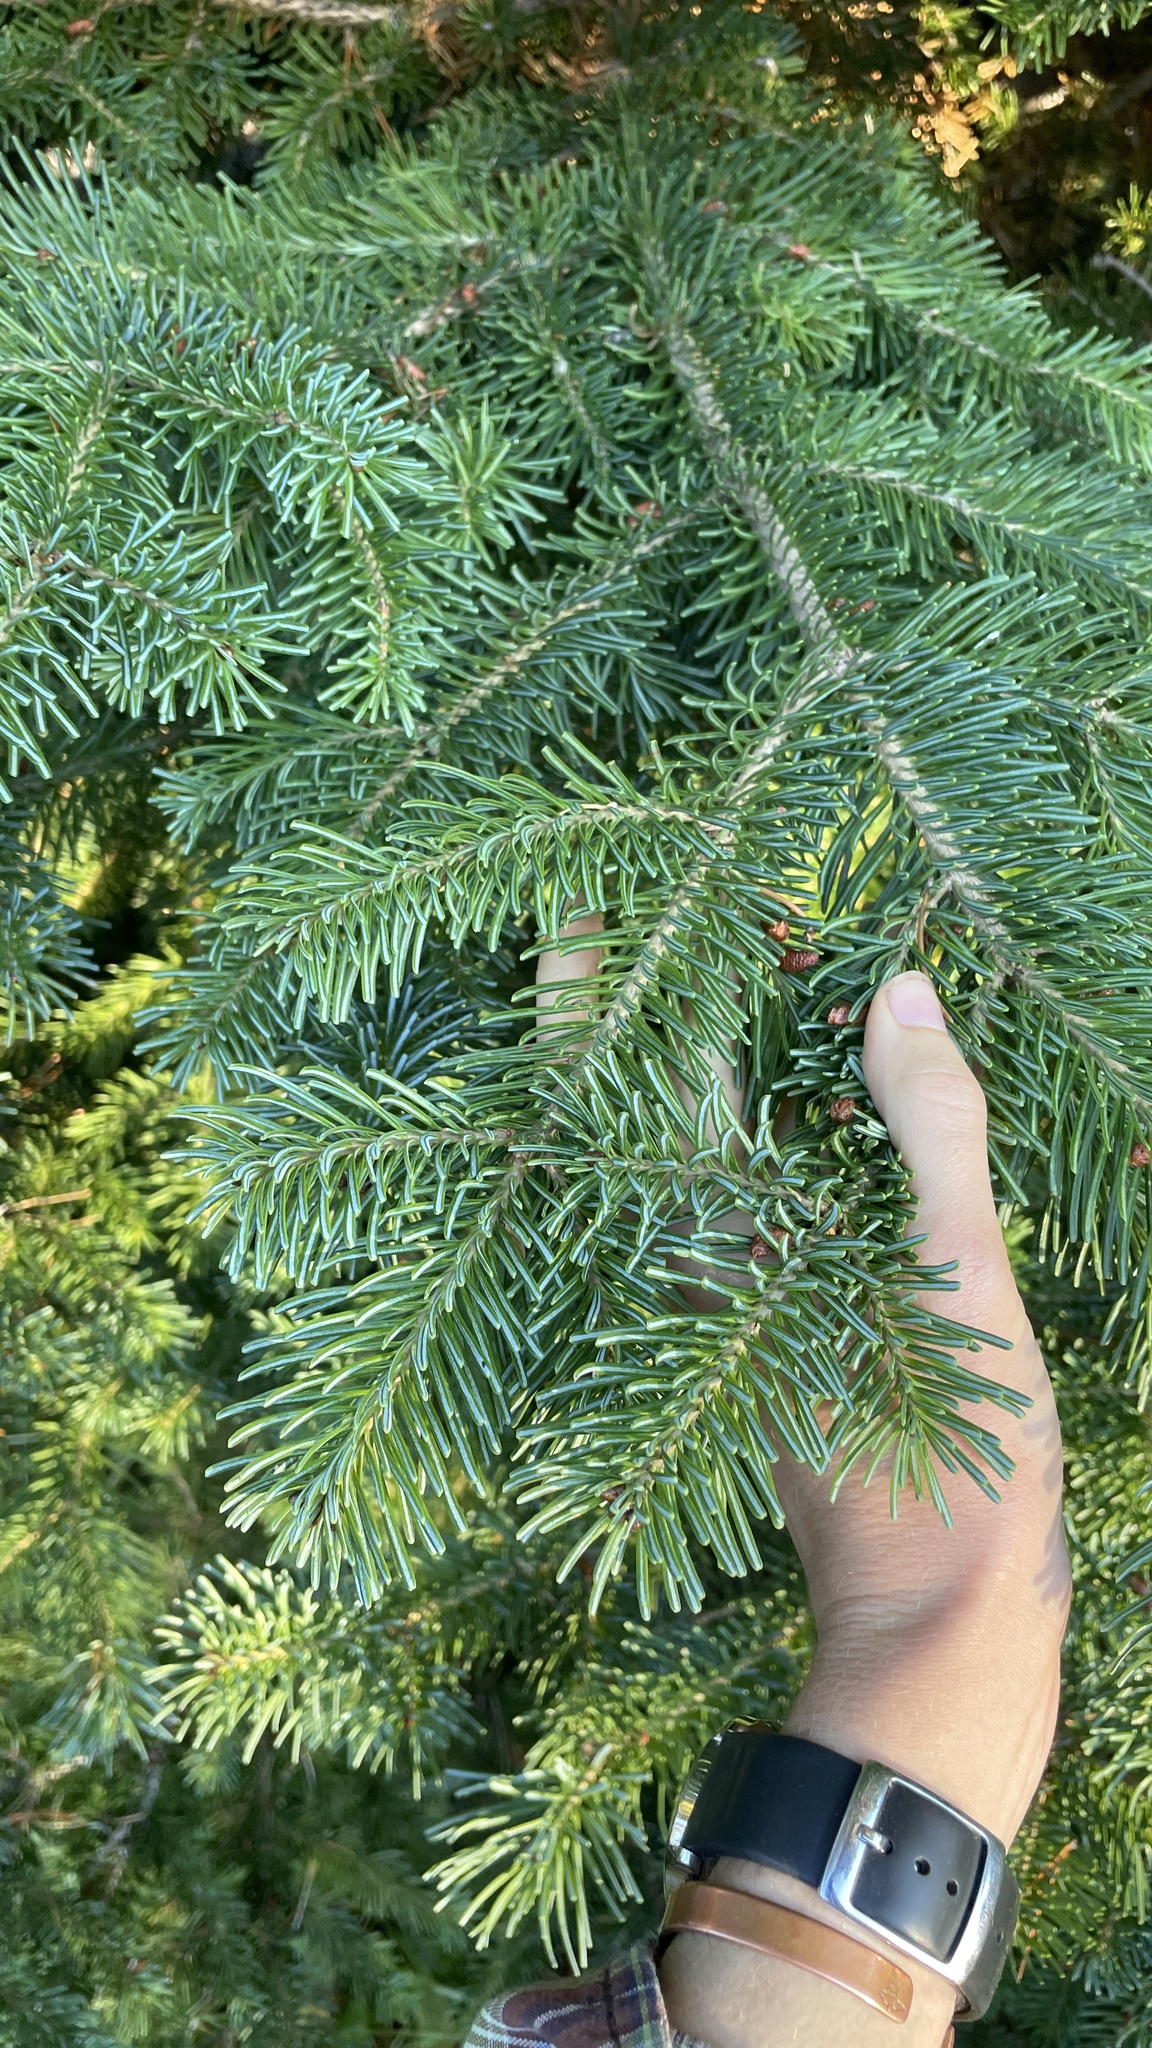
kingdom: Plantae
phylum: Tracheophyta
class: Pinopsida
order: Pinales
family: Pinaceae
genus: Abies
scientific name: Abies lasiocarpa
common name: Subalpine fir
